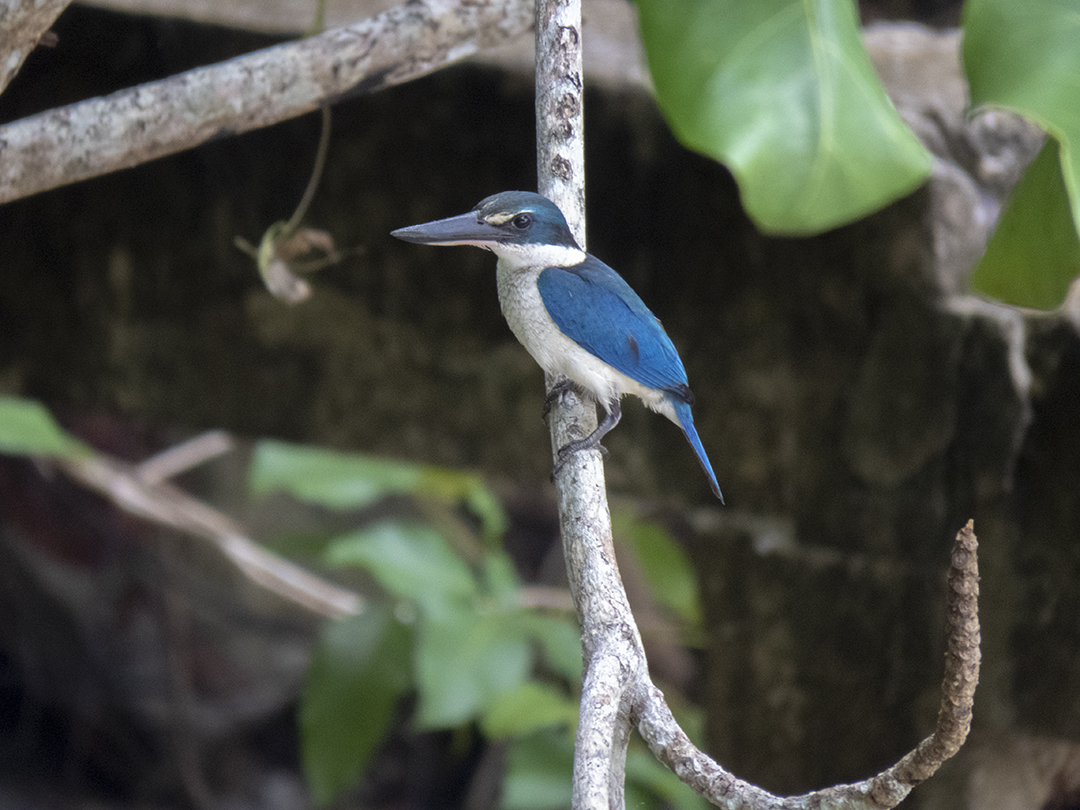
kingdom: Animalia
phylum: Chordata
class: Aves
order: Coraciiformes
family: Alcedinidae
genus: Todiramphus
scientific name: Todiramphus chloris
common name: Collared kingfisher
